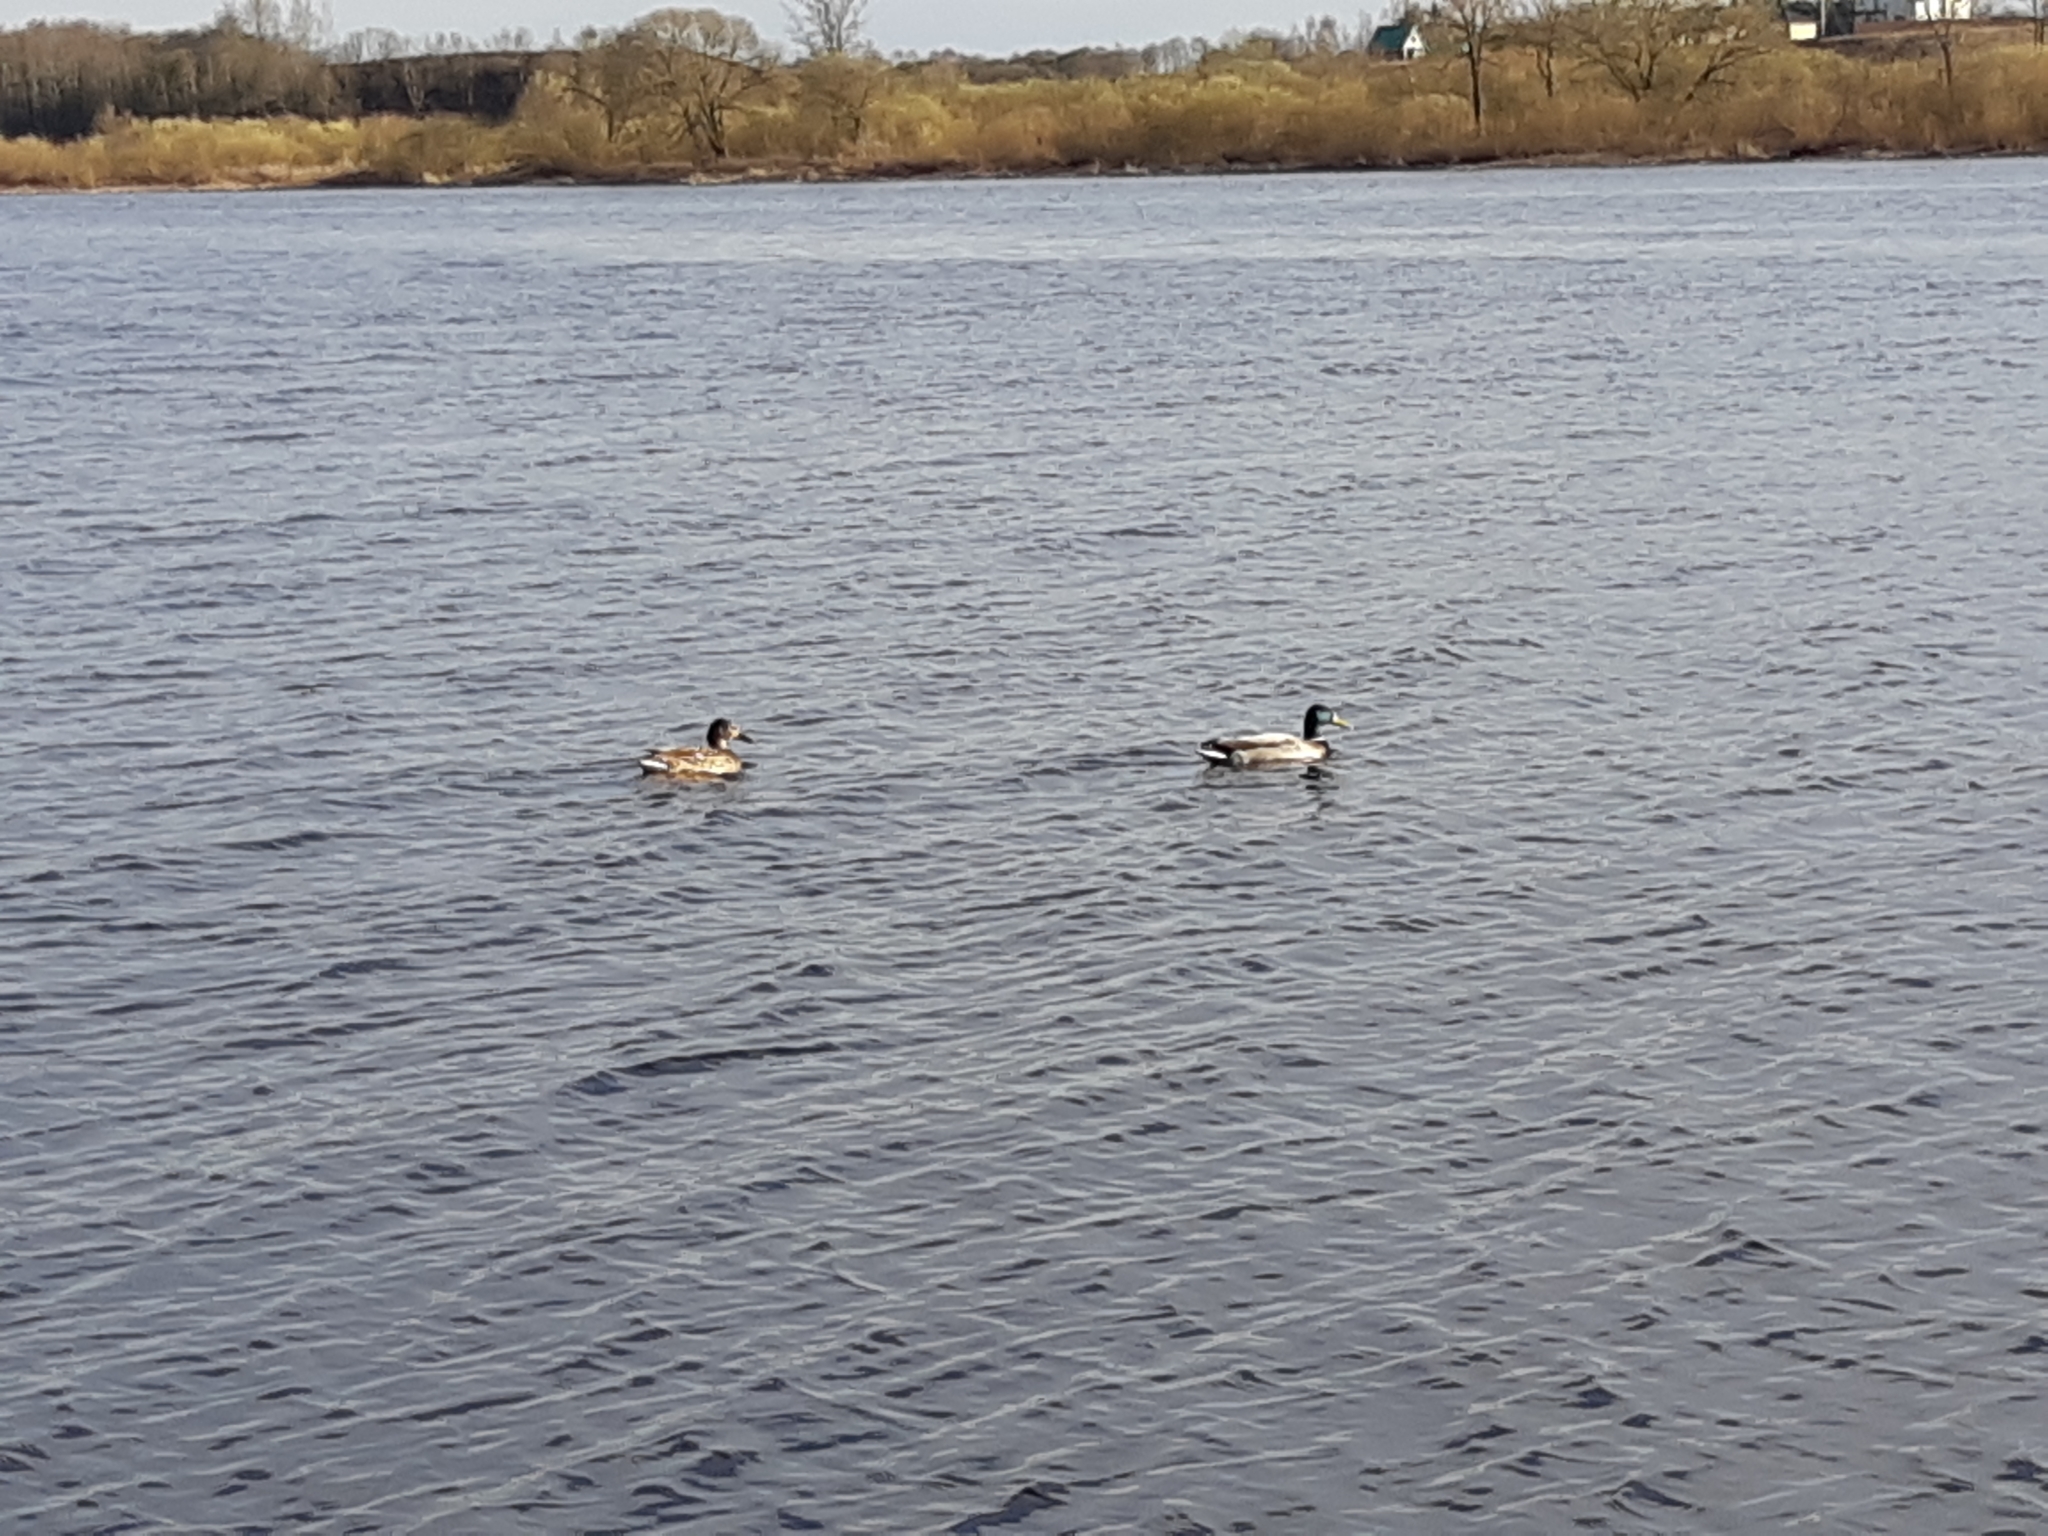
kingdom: Animalia
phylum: Chordata
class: Aves
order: Anseriformes
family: Anatidae
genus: Anas
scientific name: Anas platyrhynchos
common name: Mallard
